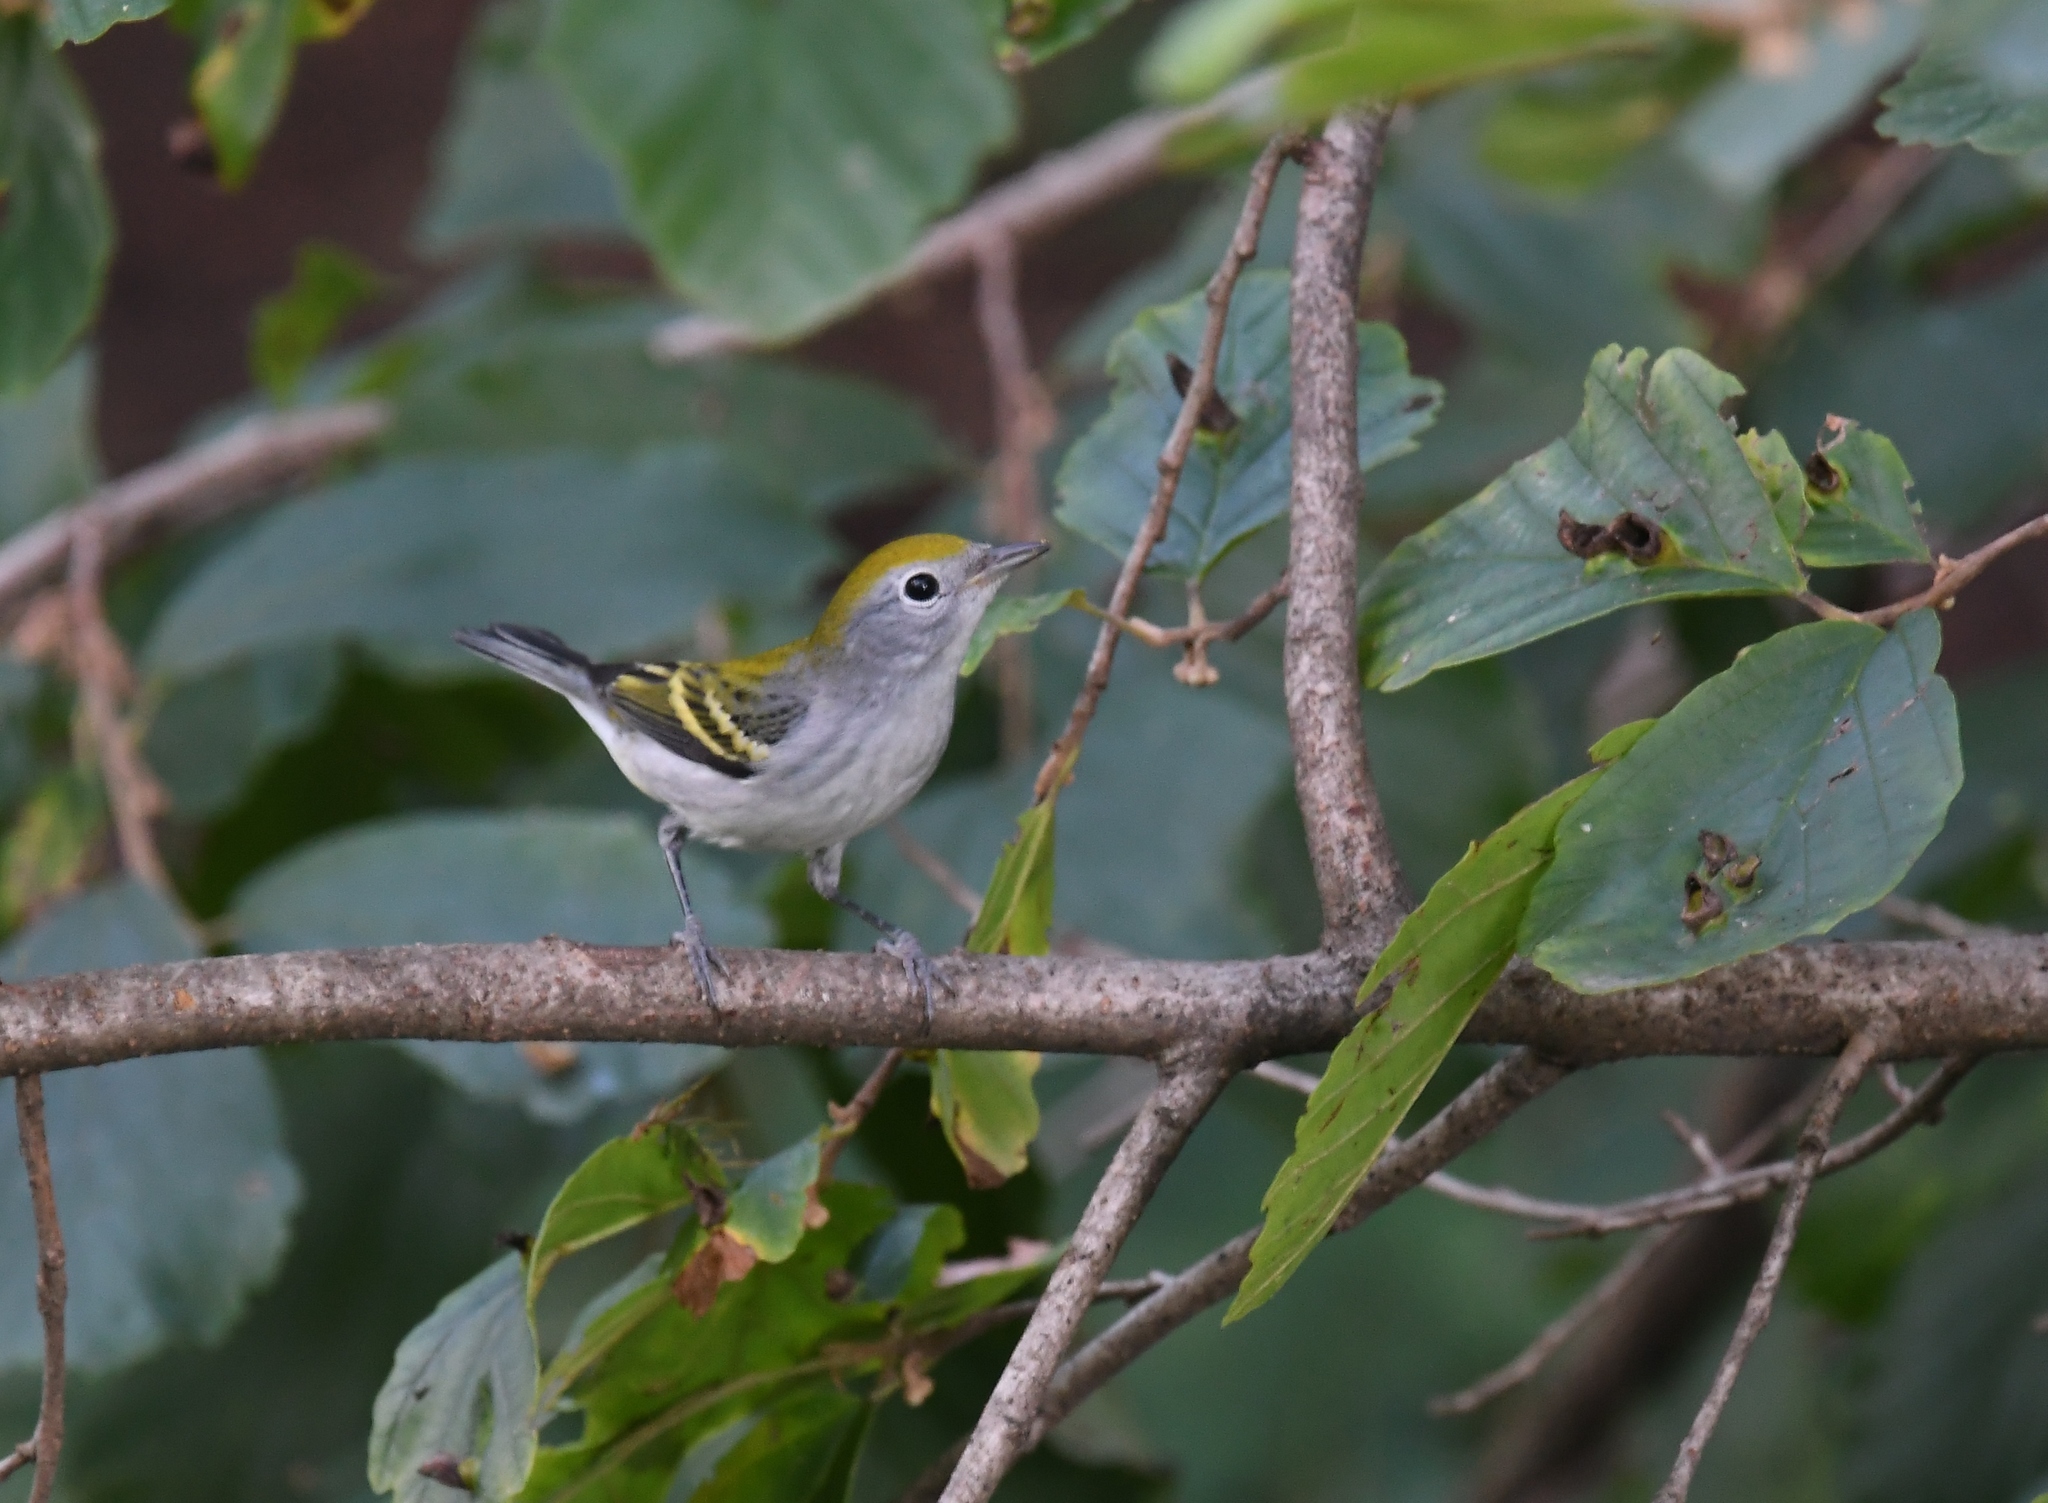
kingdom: Animalia
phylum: Chordata
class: Aves
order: Passeriformes
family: Parulidae
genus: Setophaga
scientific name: Setophaga pensylvanica
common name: Chestnut-sided warbler
